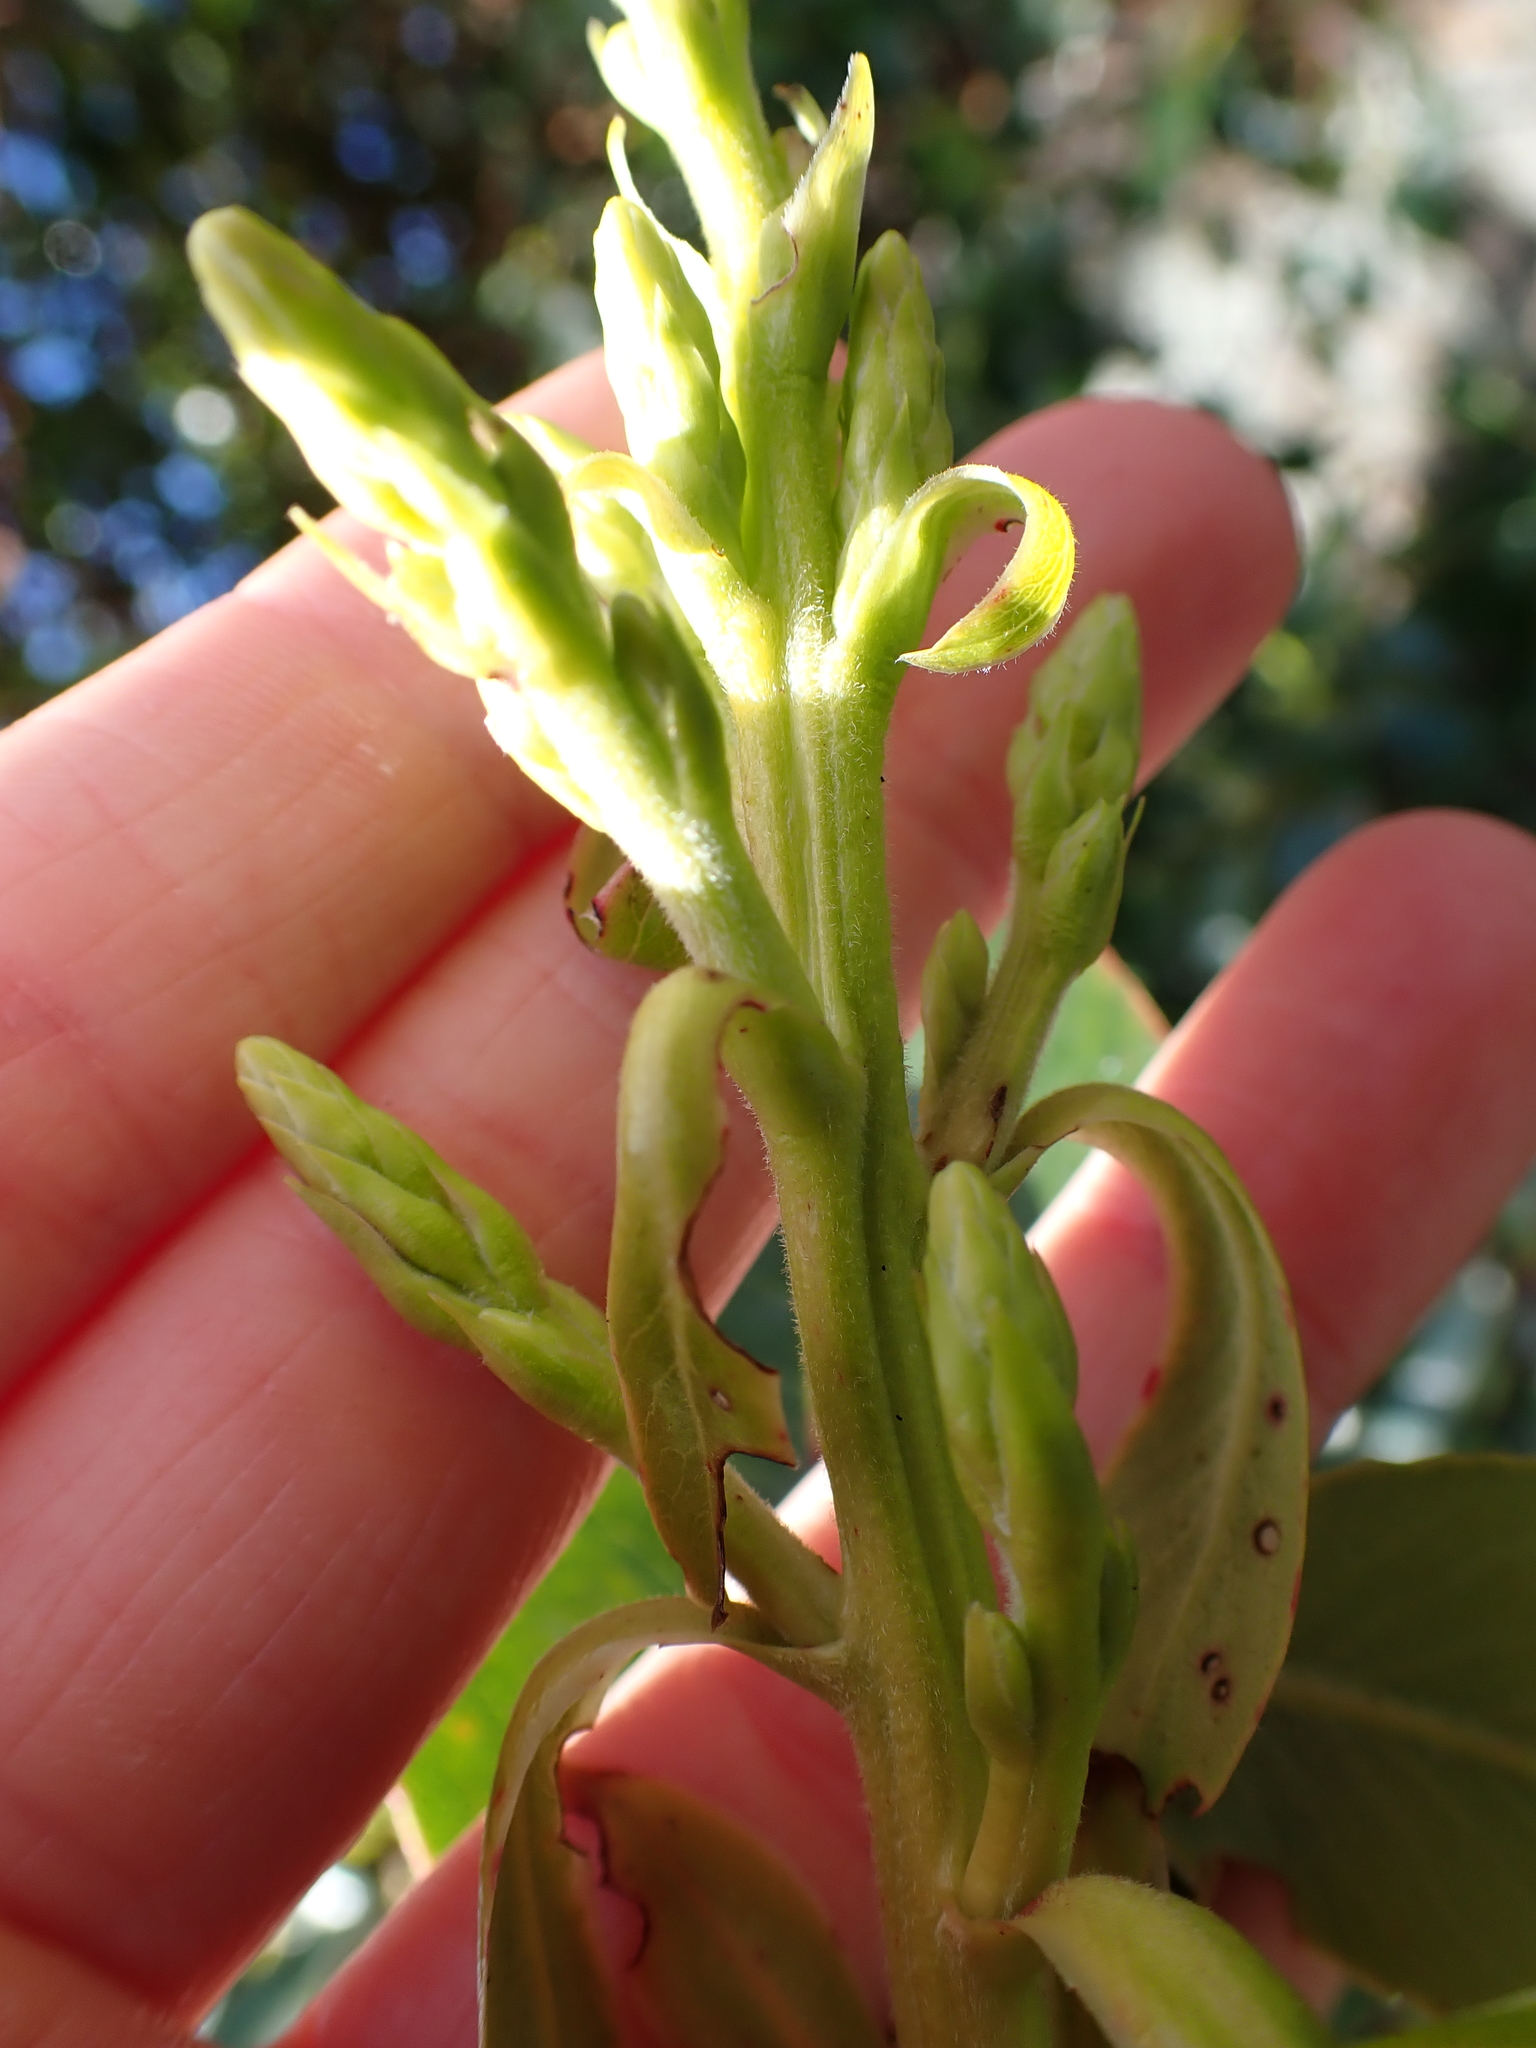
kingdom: Plantae
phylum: Tracheophyta
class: Magnoliopsida
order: Ericales
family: Ericaceae
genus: Arbutus
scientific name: Arbutus menziesii
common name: Pacific madrone
